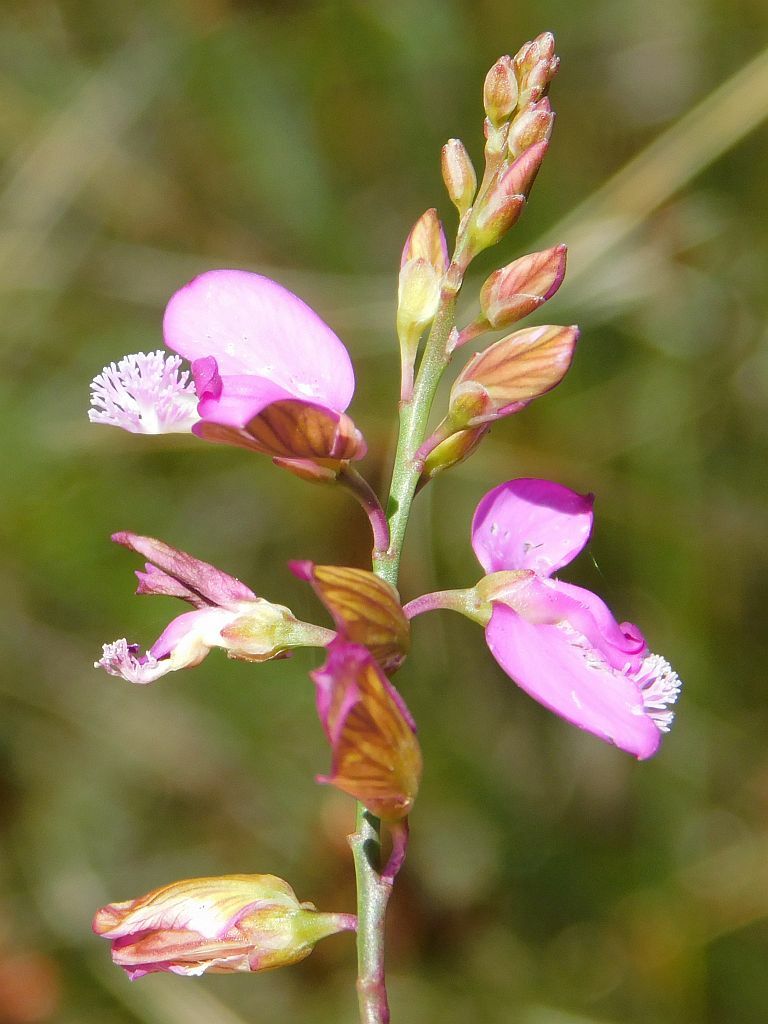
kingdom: Plantae
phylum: Tracheophyta
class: Magnoliopsida
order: Fabales
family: Polygalaceae
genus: Polygala
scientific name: Polygala garcini
